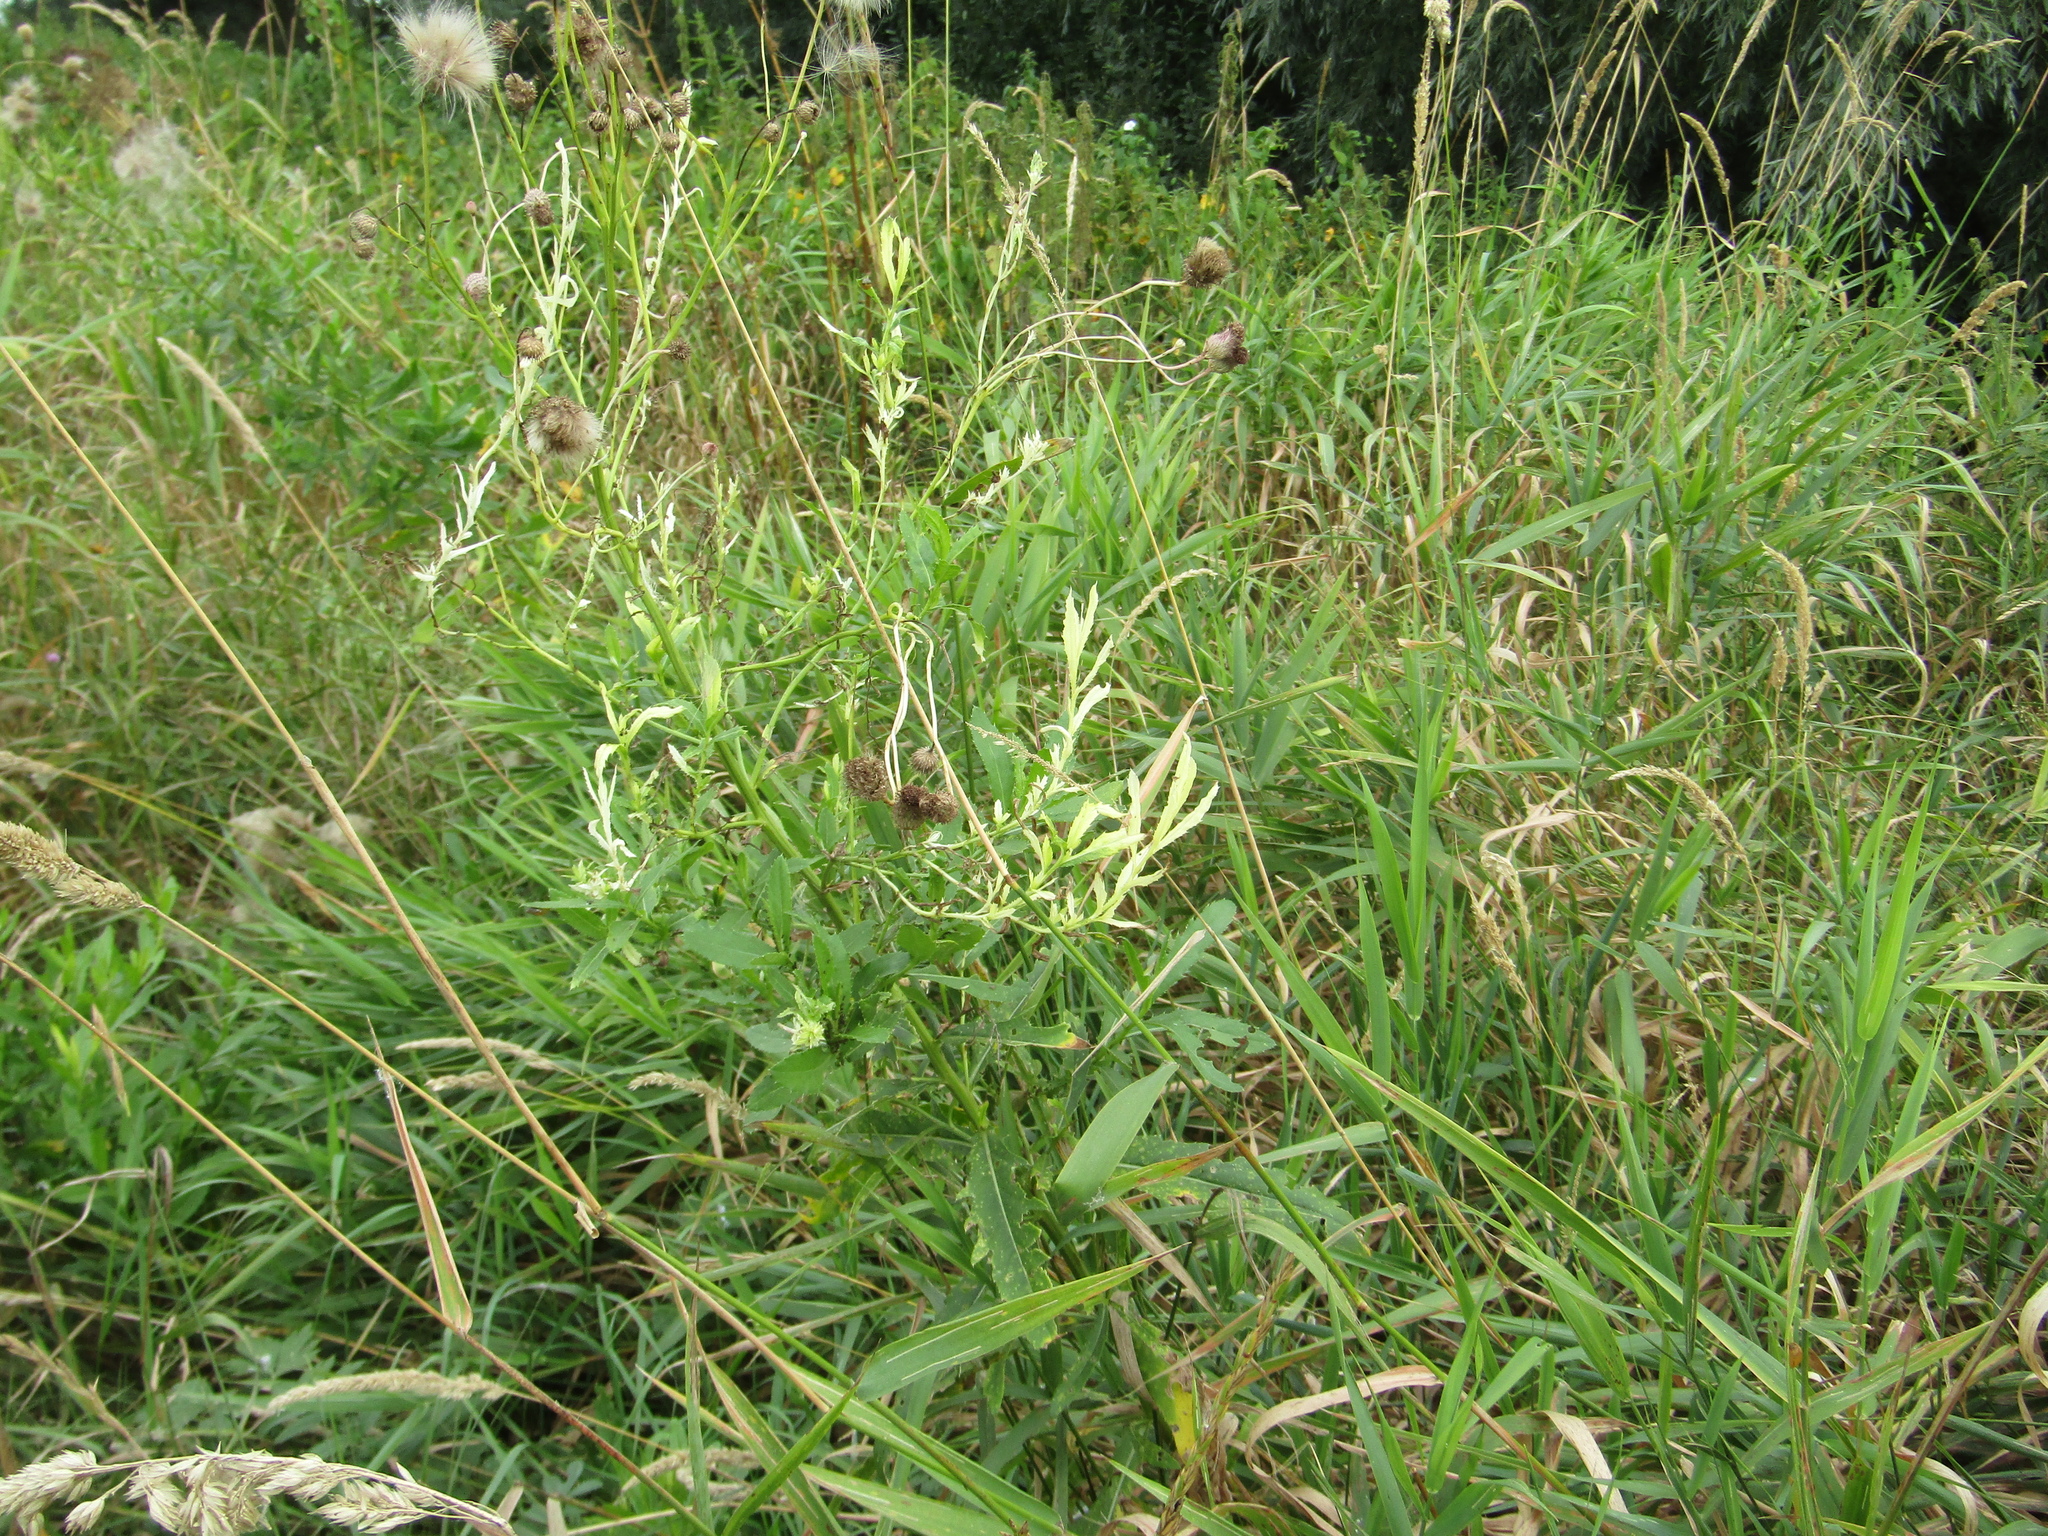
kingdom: Bacteria
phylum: Proteobacteria
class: Gammaproteobacteria
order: Pseudomonadales
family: Pseudomonadaceae
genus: Pseudomonas
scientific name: Pseudomonas syringae
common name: Bacterial speck
